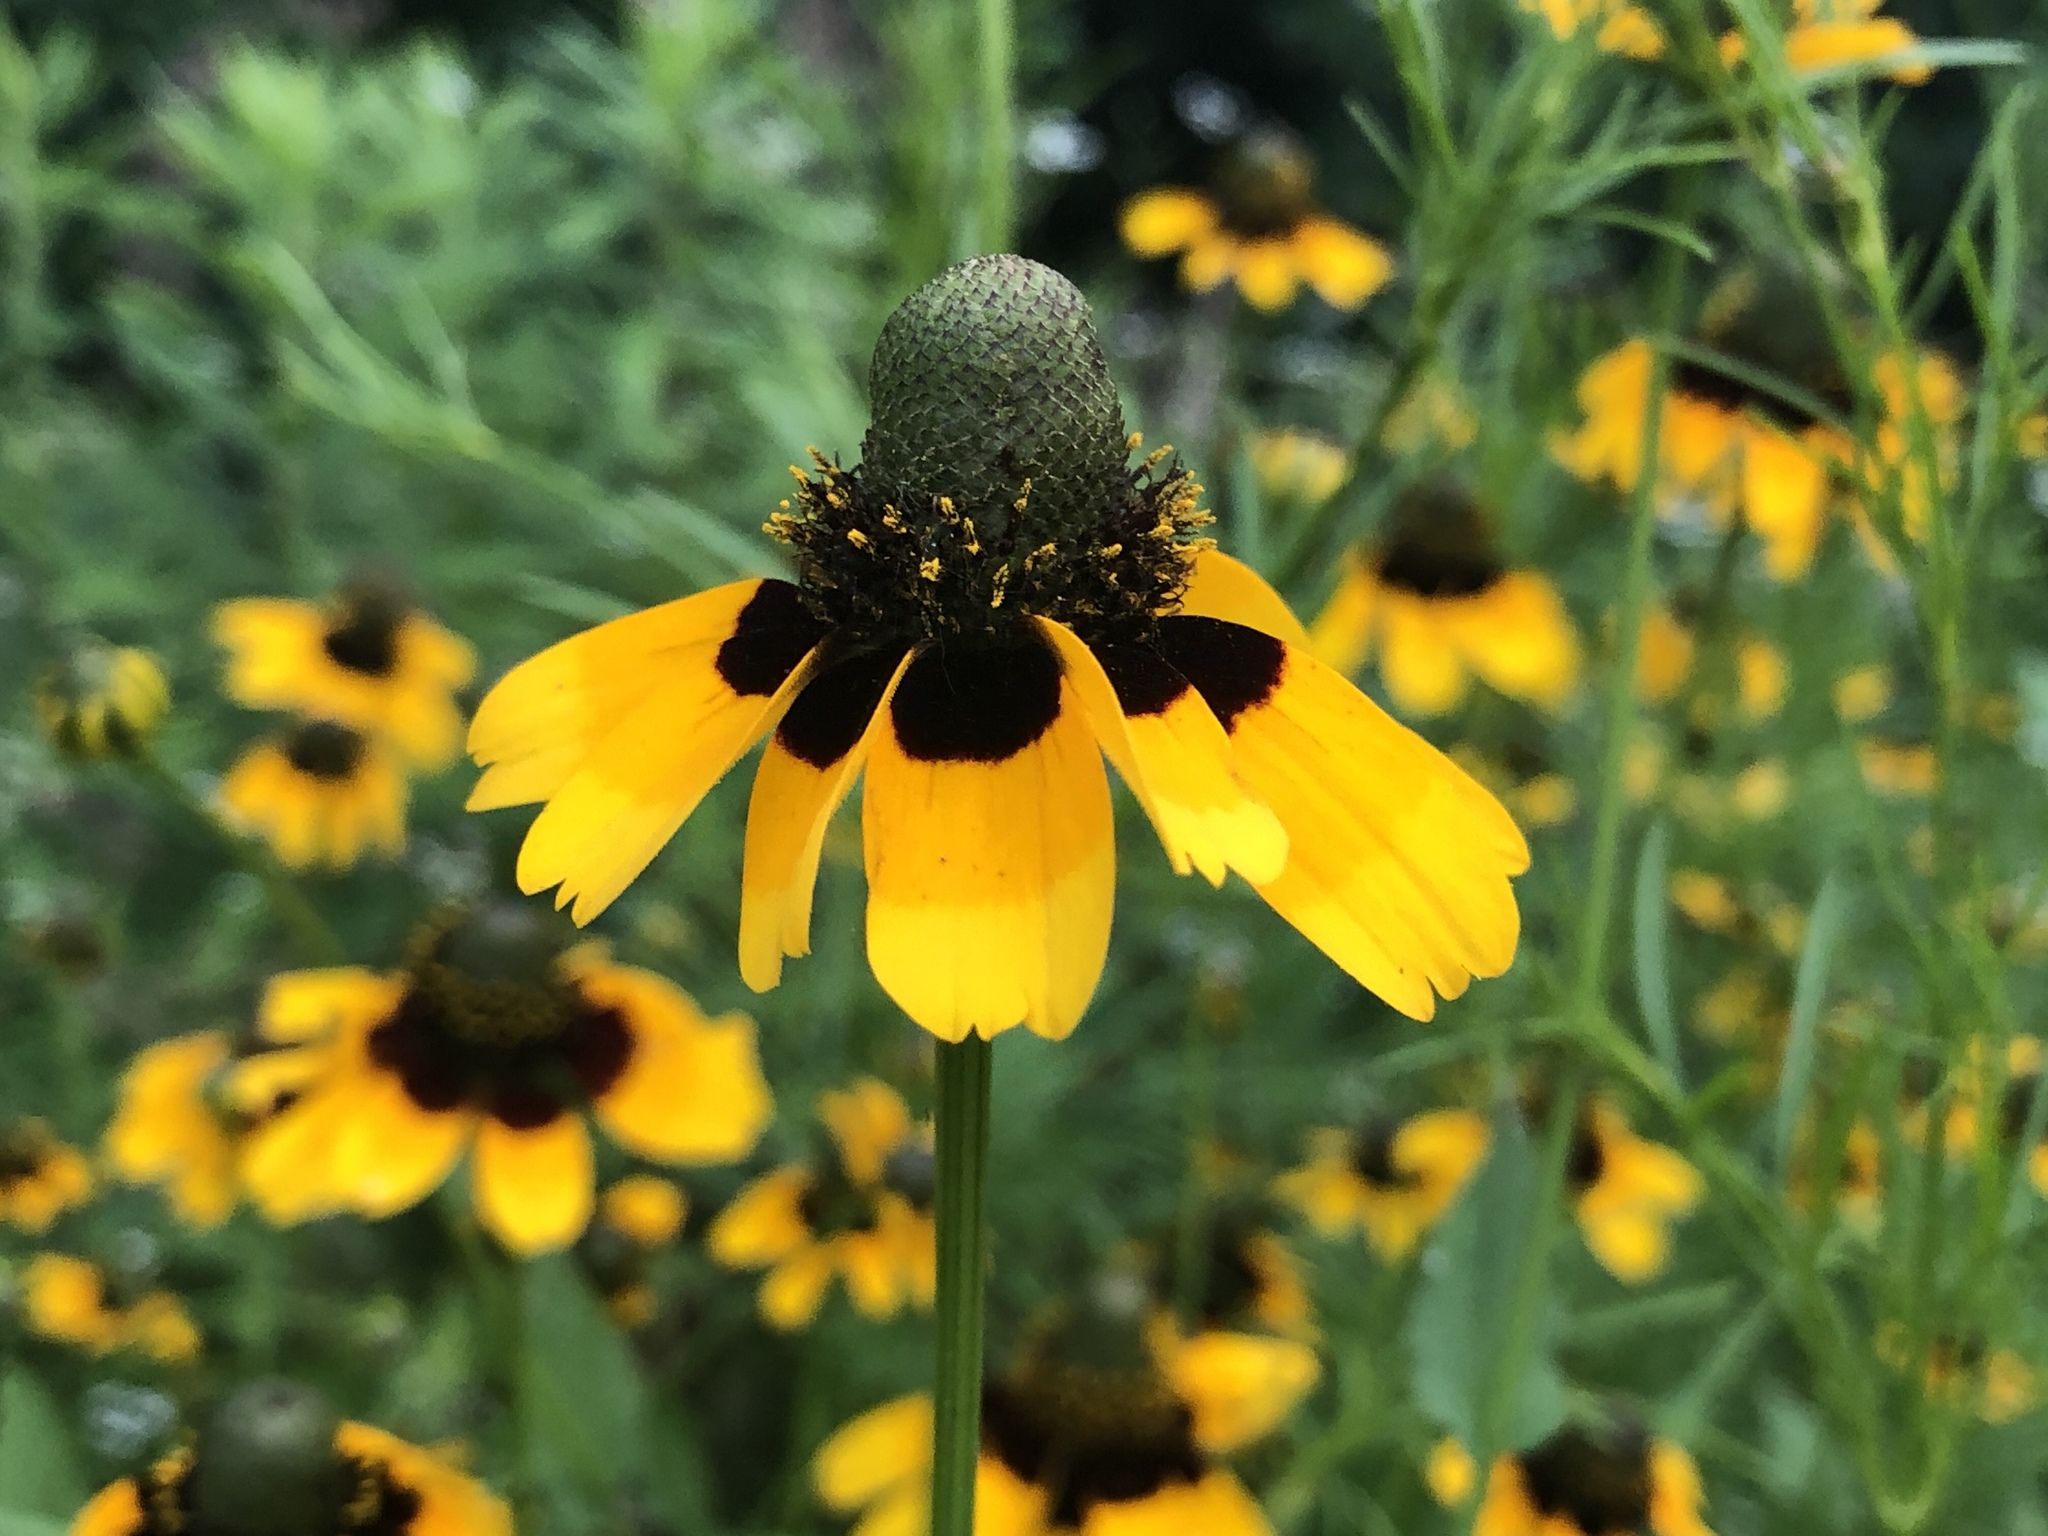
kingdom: Plantae
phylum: Tracheophyta
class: Magnoliopsida
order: Asterales
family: Asteraceae
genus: Rudbeckia
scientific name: Rudbeckia amplexicaulis
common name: Clasping-leaf coneflower
